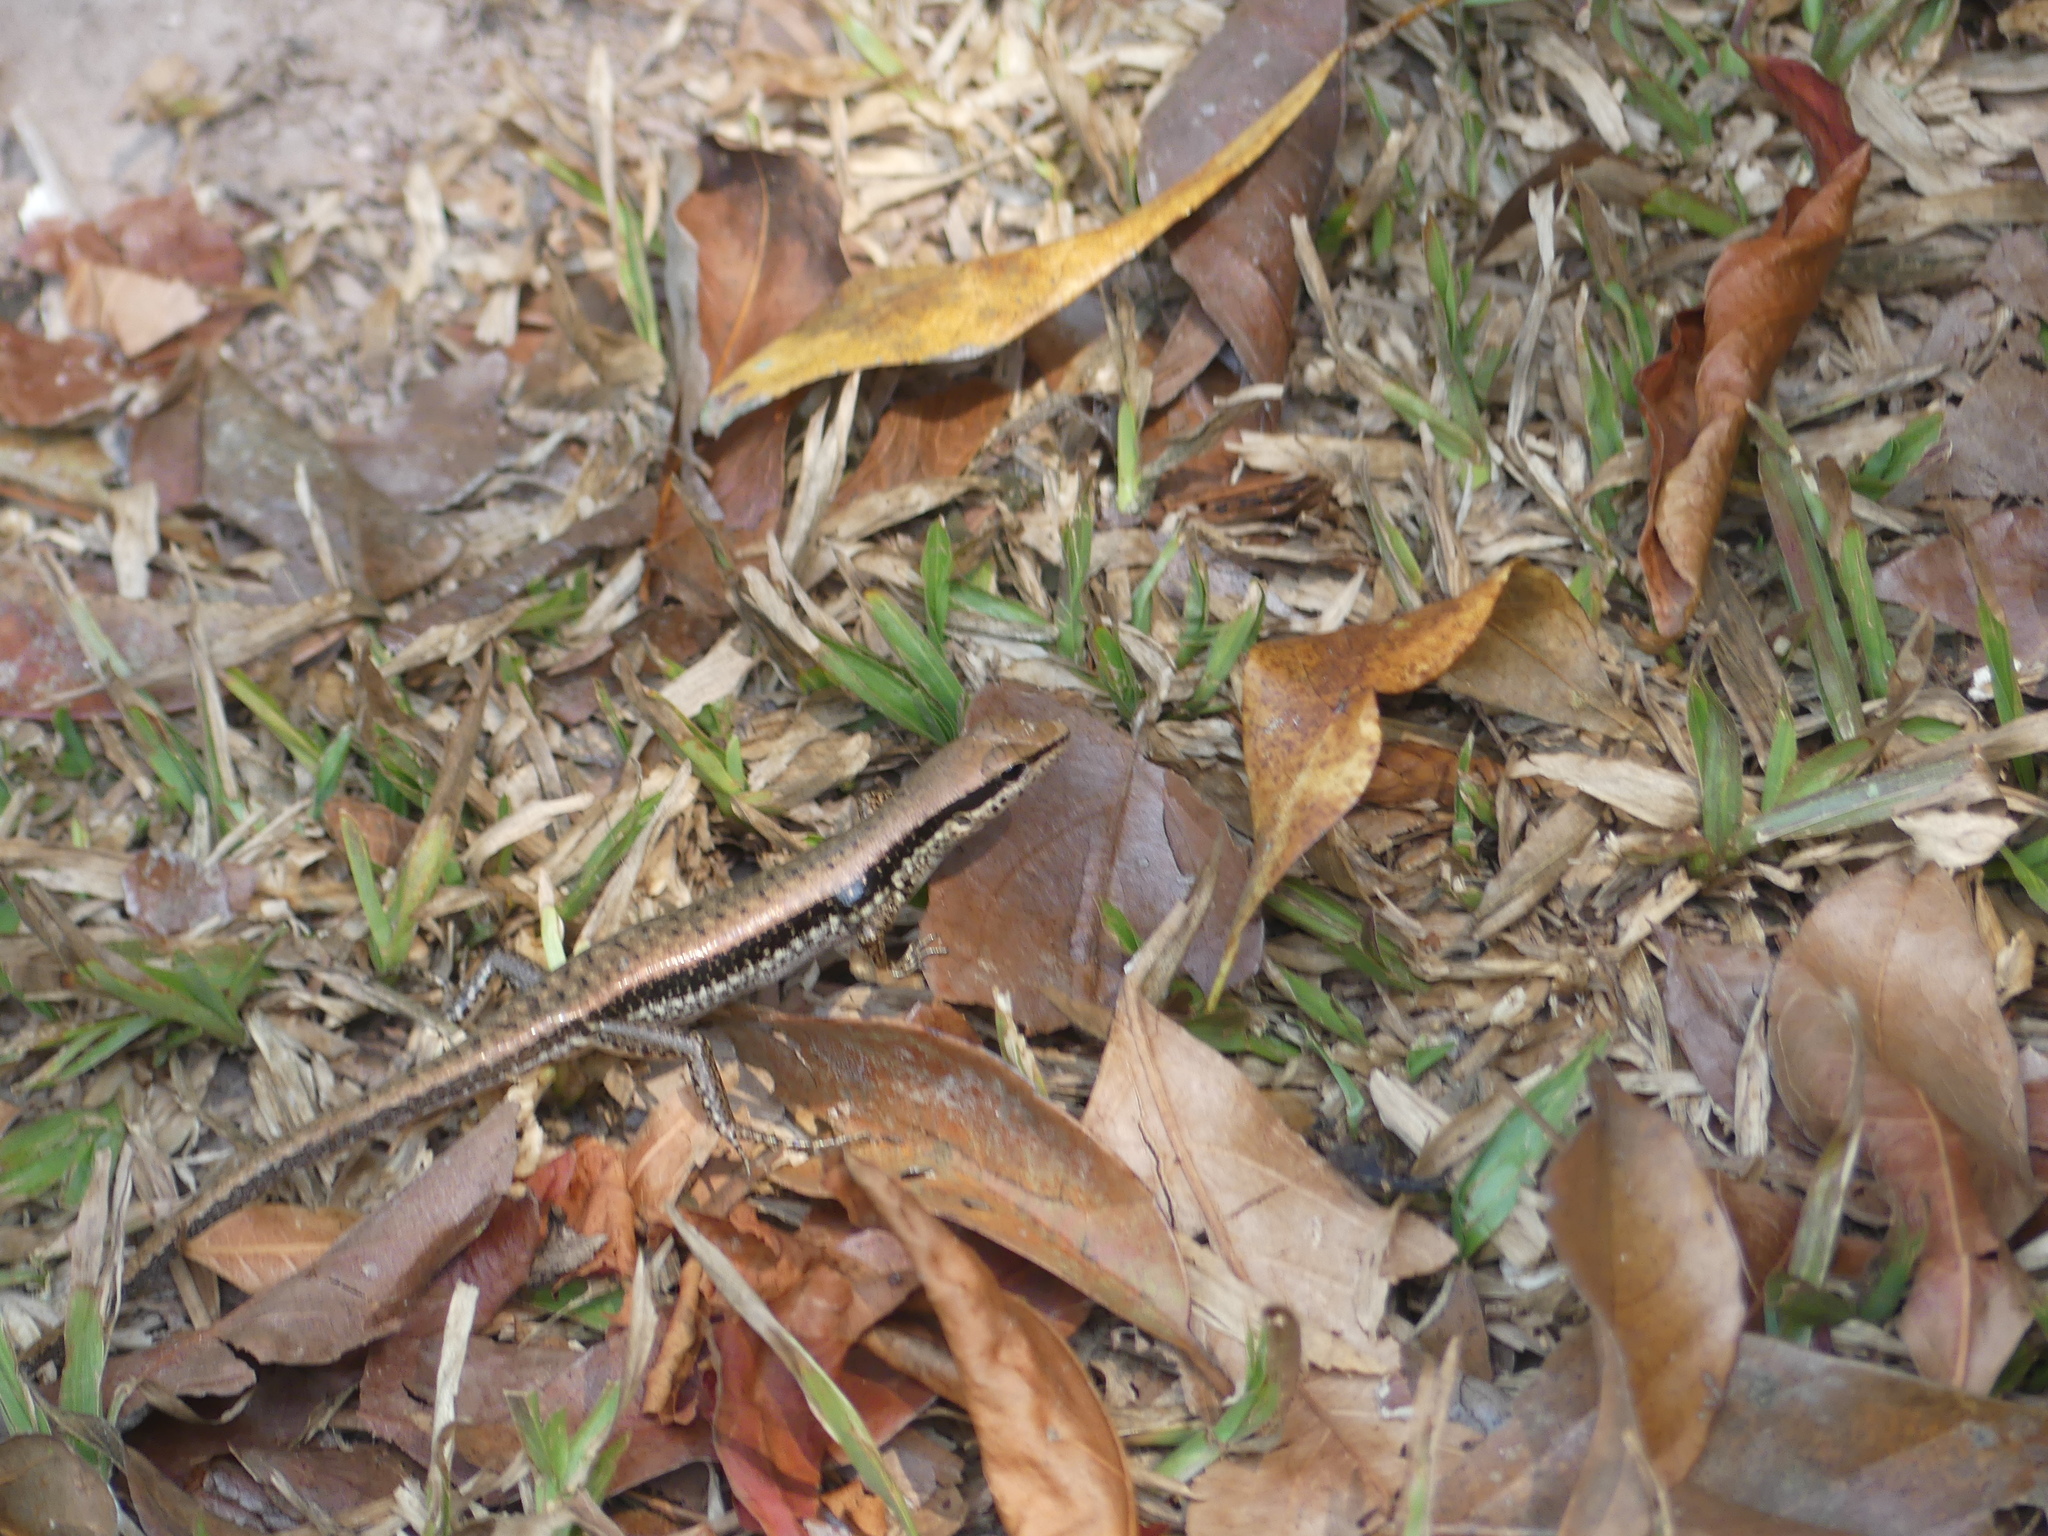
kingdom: Animalia
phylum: Chordata
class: Squamata
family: Scincidae
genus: Sphenomorphus
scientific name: Sphenomorphus maculatus
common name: Maculated forest skink
